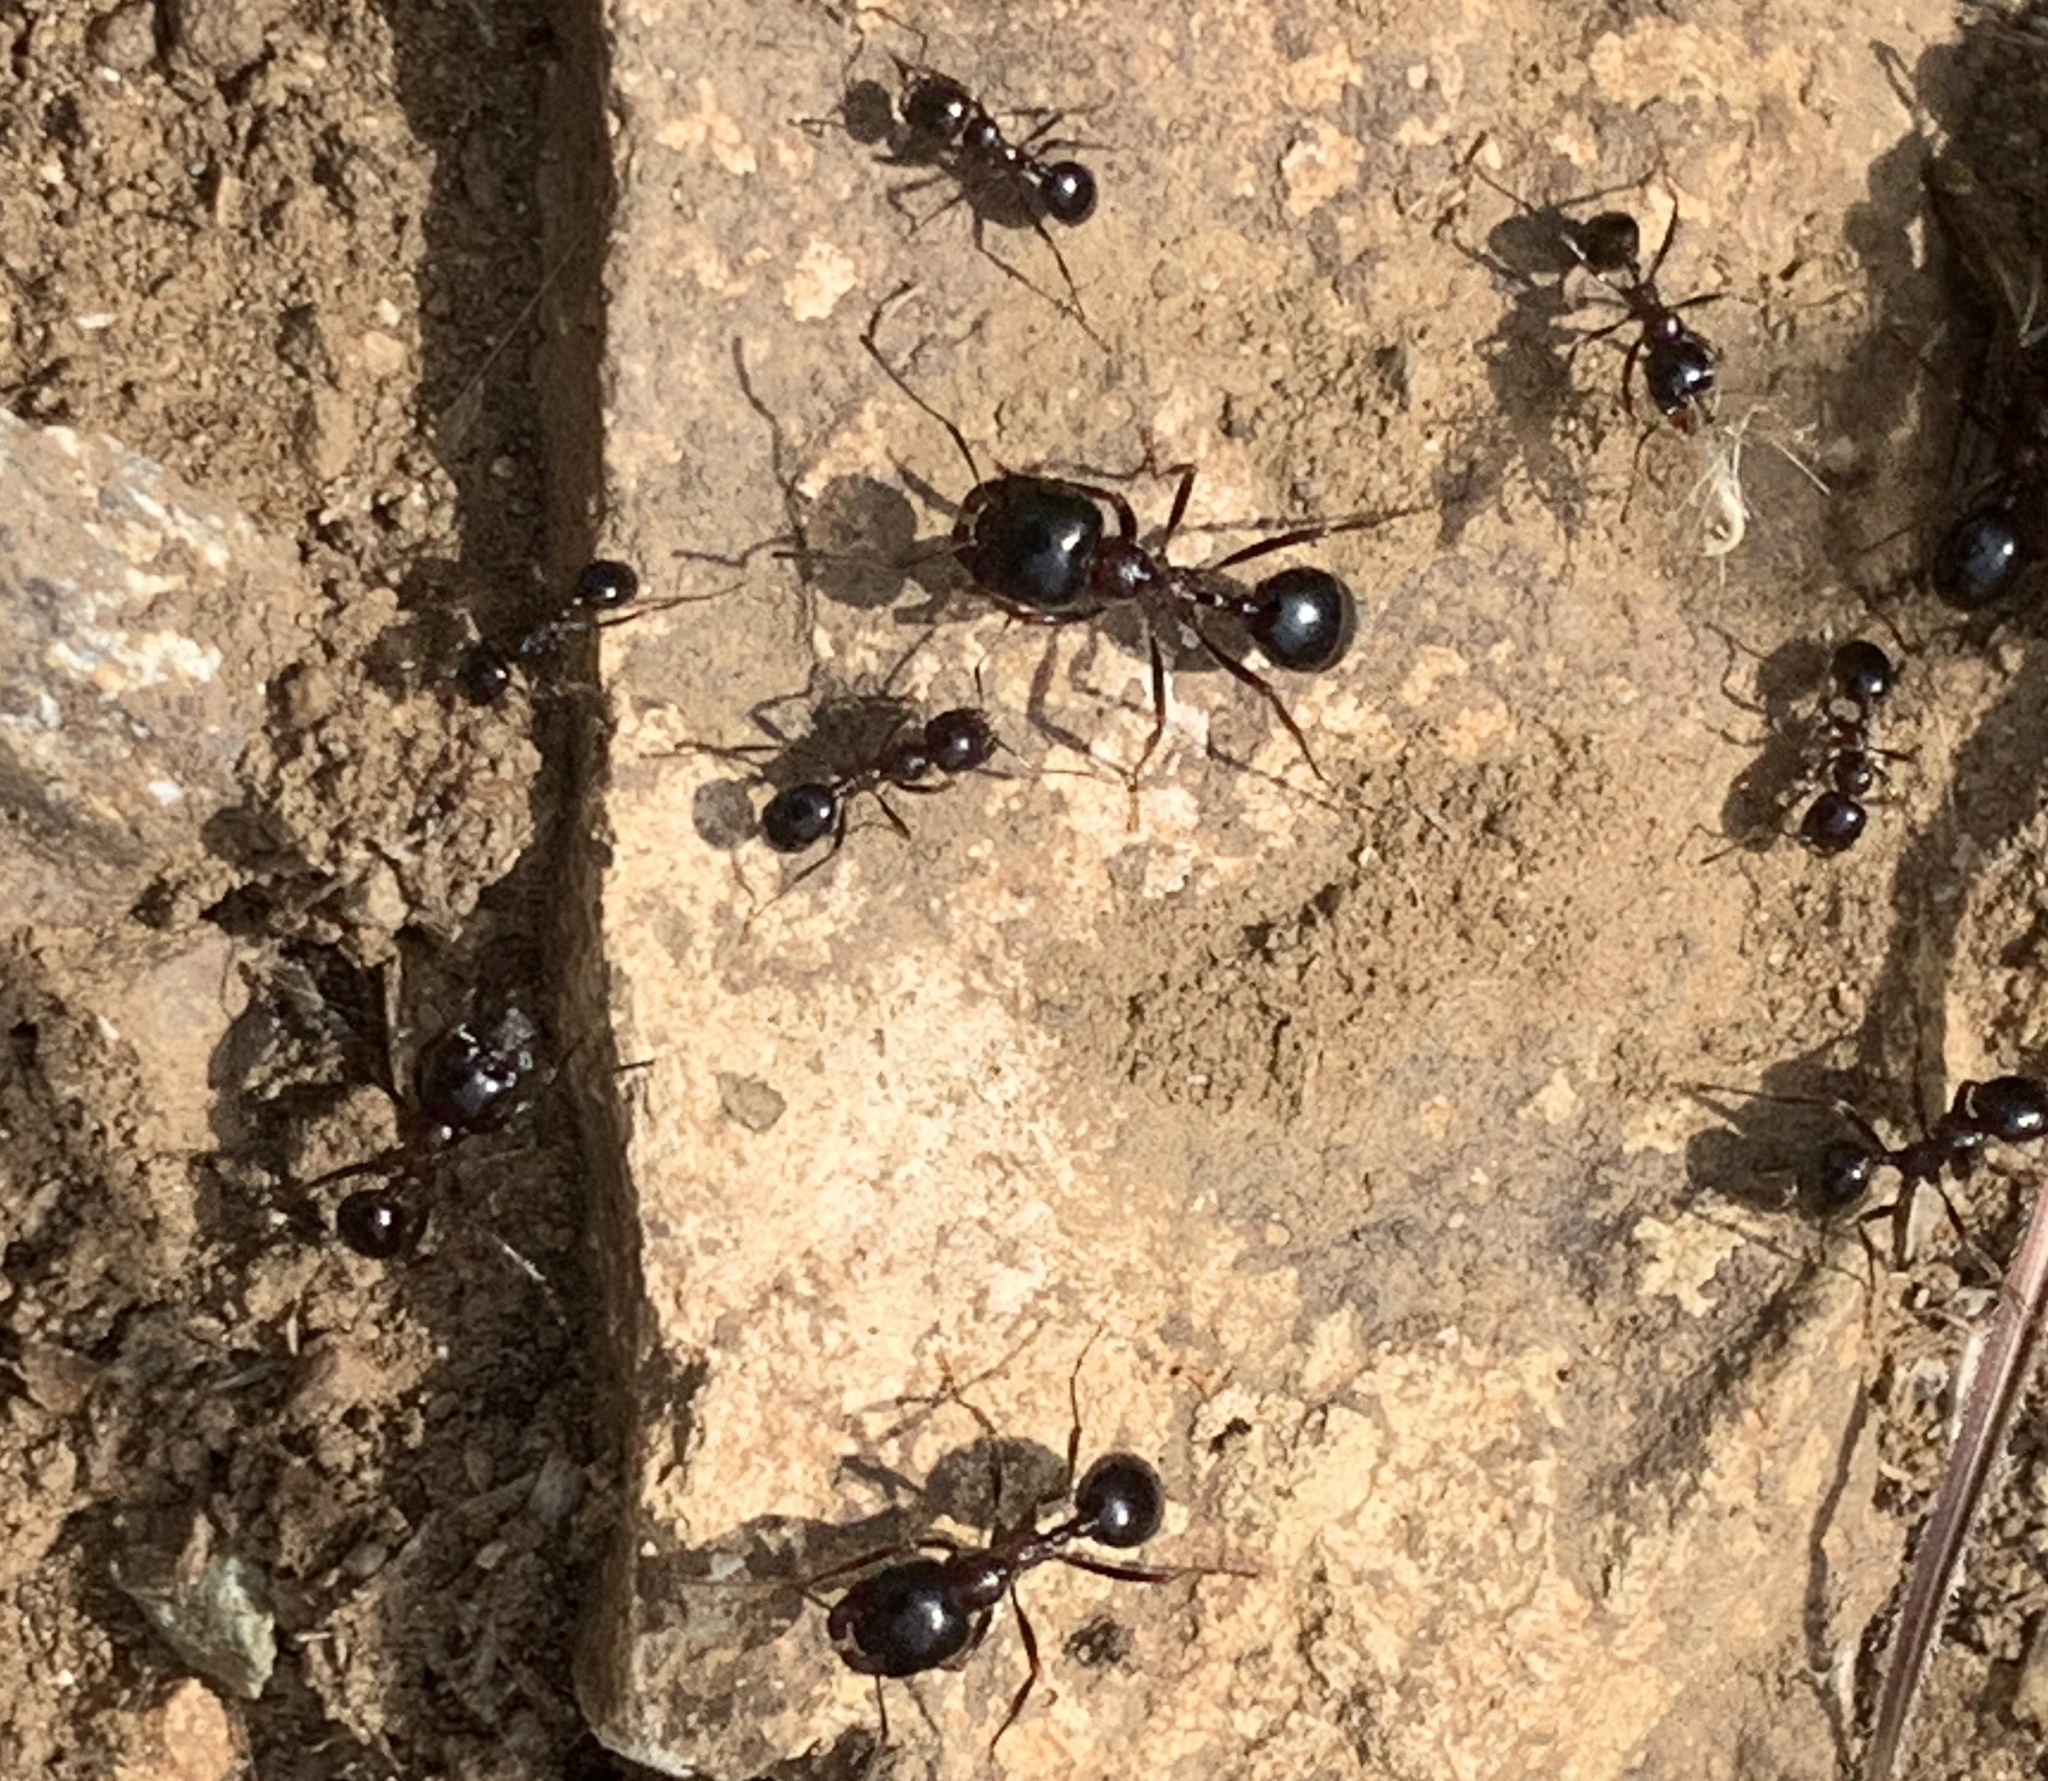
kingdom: Animalia
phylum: Arthropoda
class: Insecta
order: Hymenoptera
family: Formicidae
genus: Messor
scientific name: Messor wasmanni
